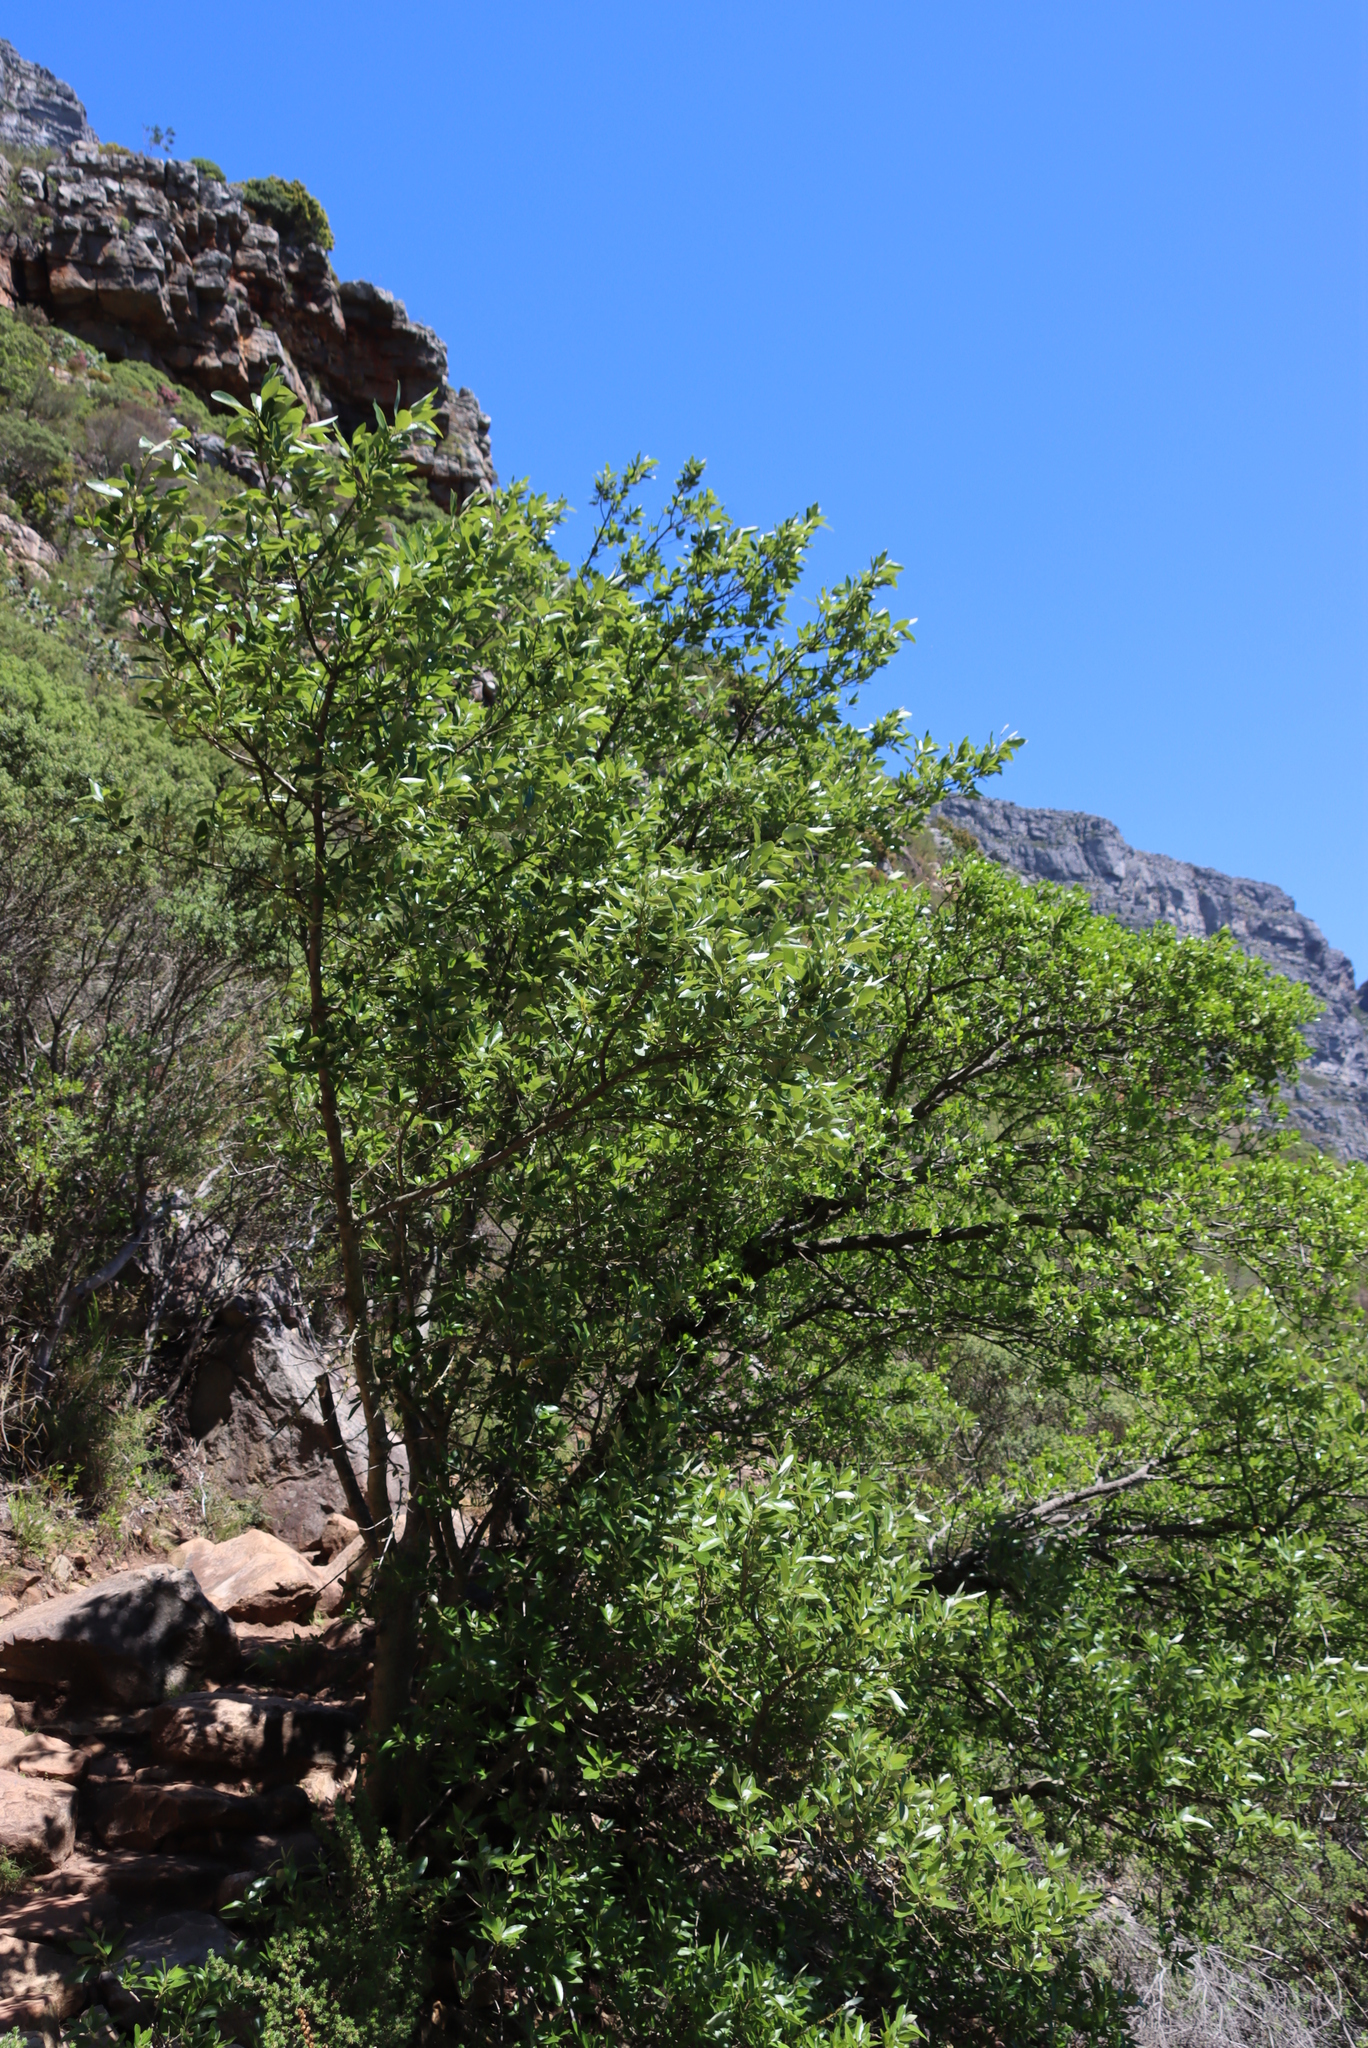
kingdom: Plantae
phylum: Tracheophyta
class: Magnoliopsida
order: Malpighiales
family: Achariaceae
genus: Kiggelaria
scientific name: Kiggelaria africana
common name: Wild peach
